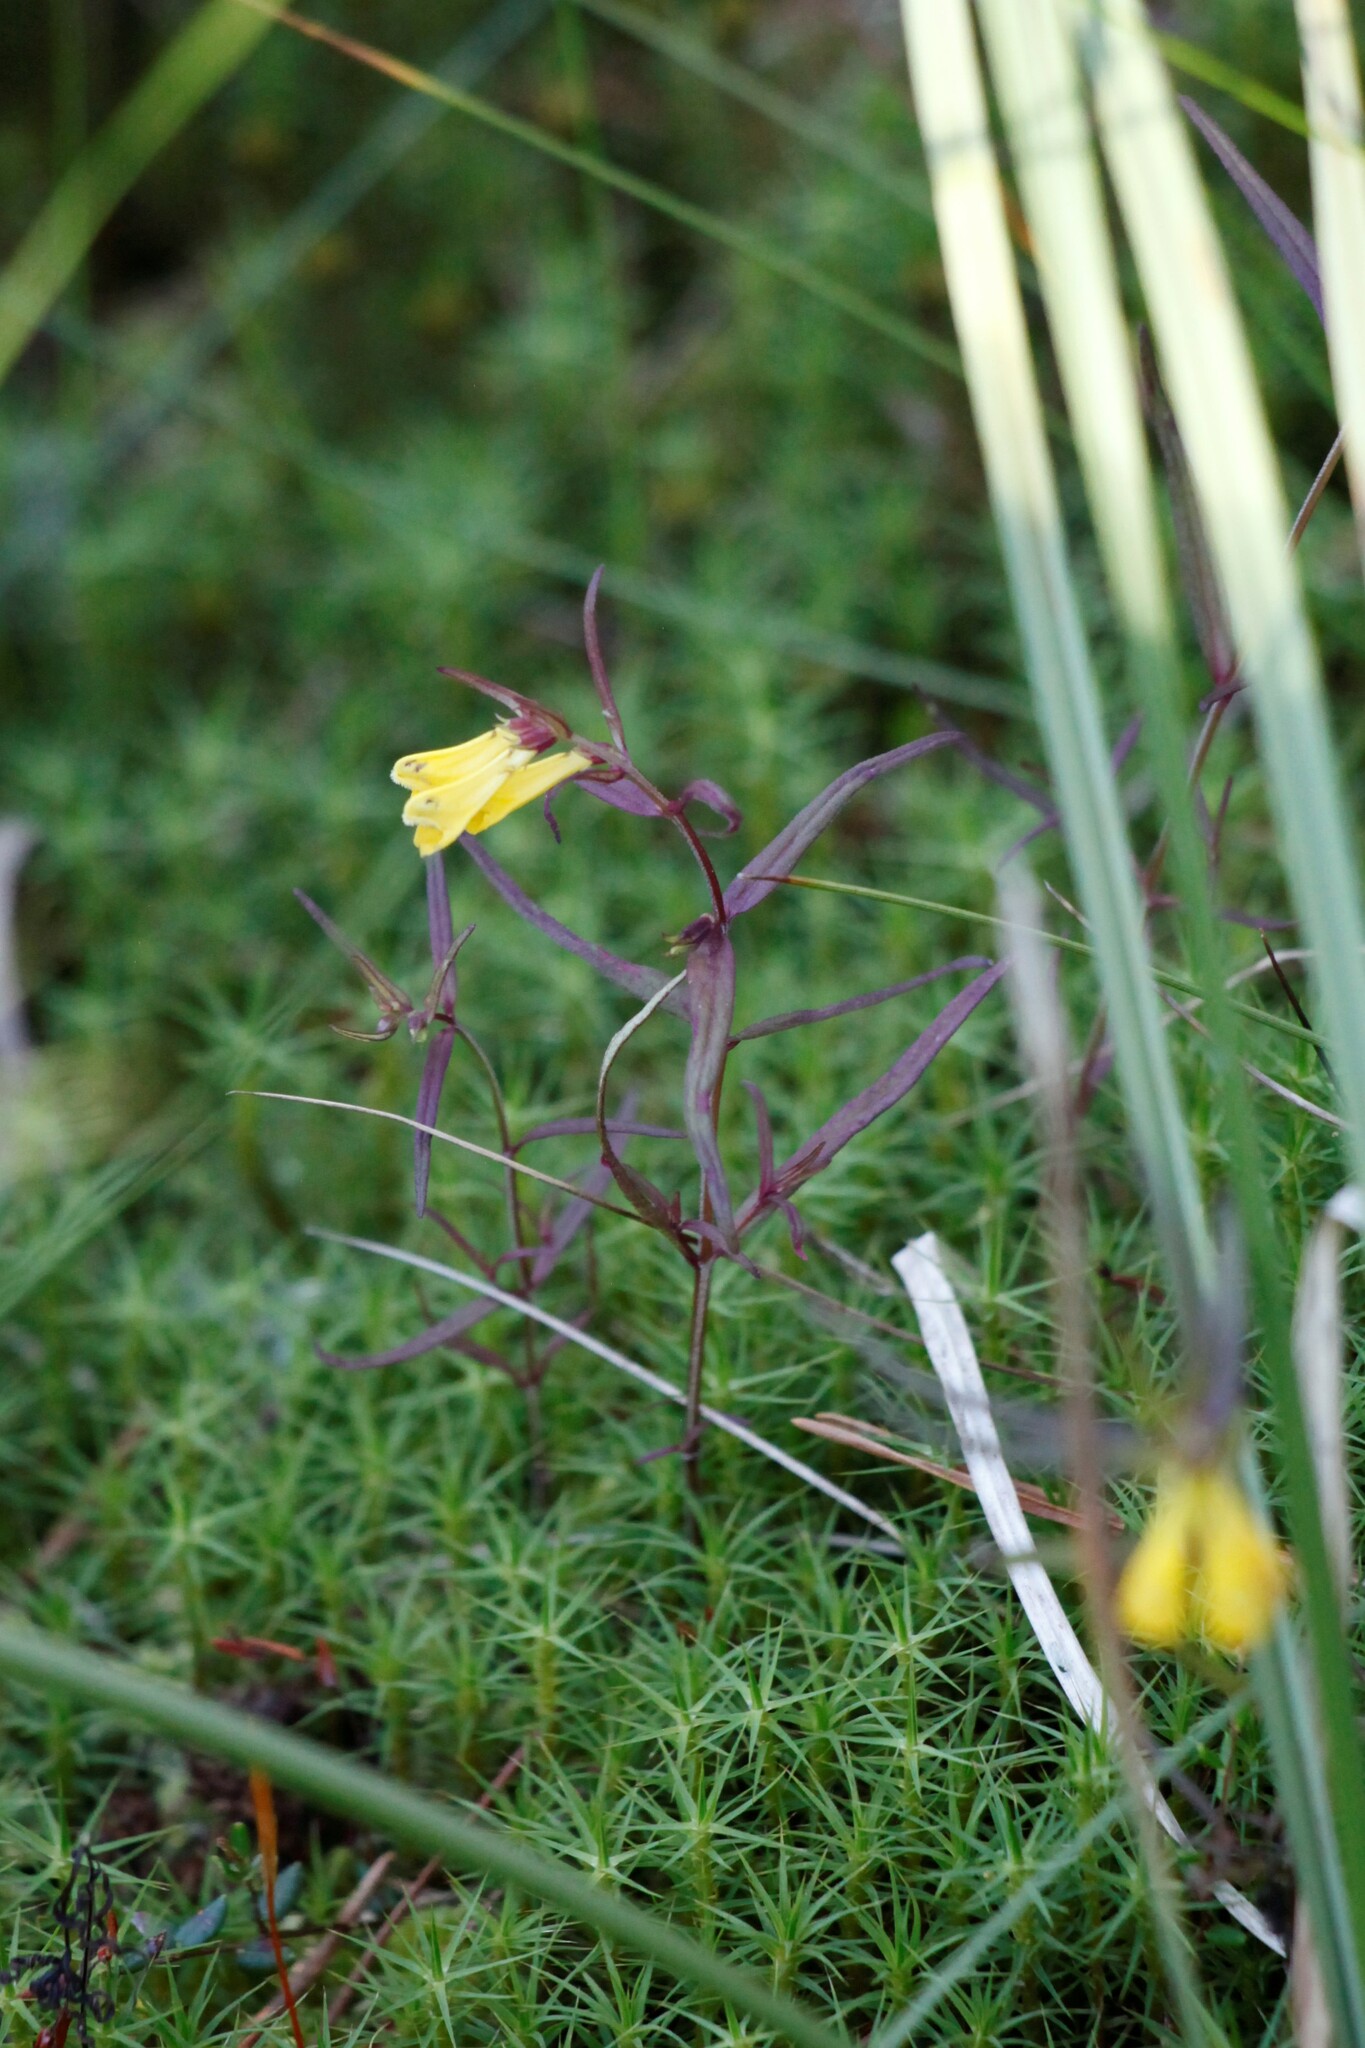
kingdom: Plantae
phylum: Tracheophyta
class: Magnoliopsida
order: Lamiales
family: Orobanchaceae
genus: Melampyrum
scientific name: Melampyrum pratense
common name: Common cow-wheat
